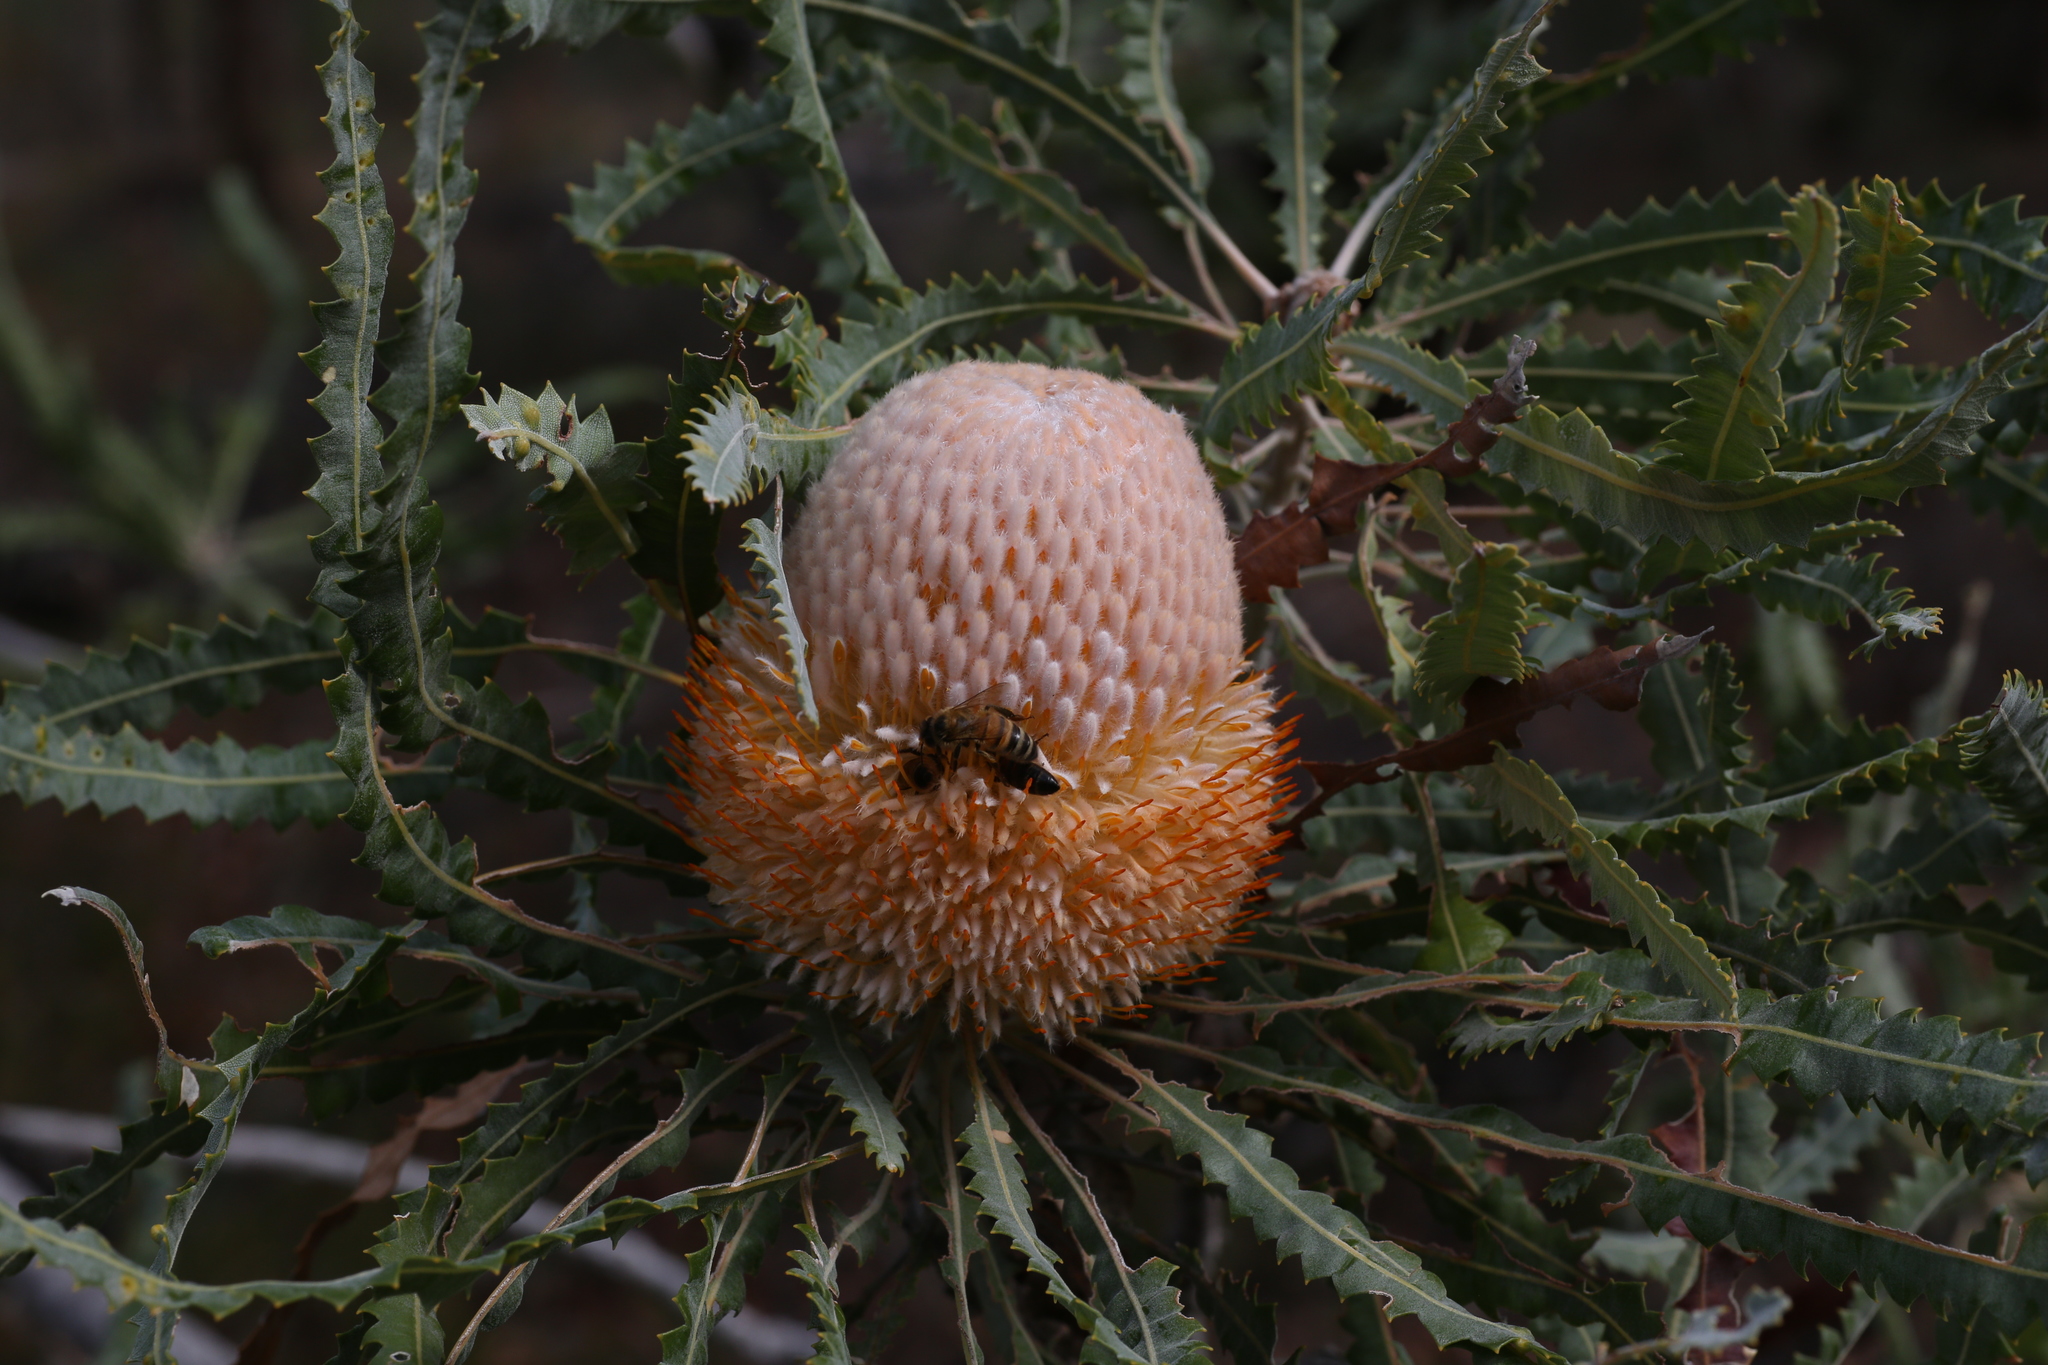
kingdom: Plantae
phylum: Tracheophyta
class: Magnoliopsida
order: Proteales
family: Proteaceae
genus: Banksia
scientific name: Banksia prionotes
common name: Acorn banksia
